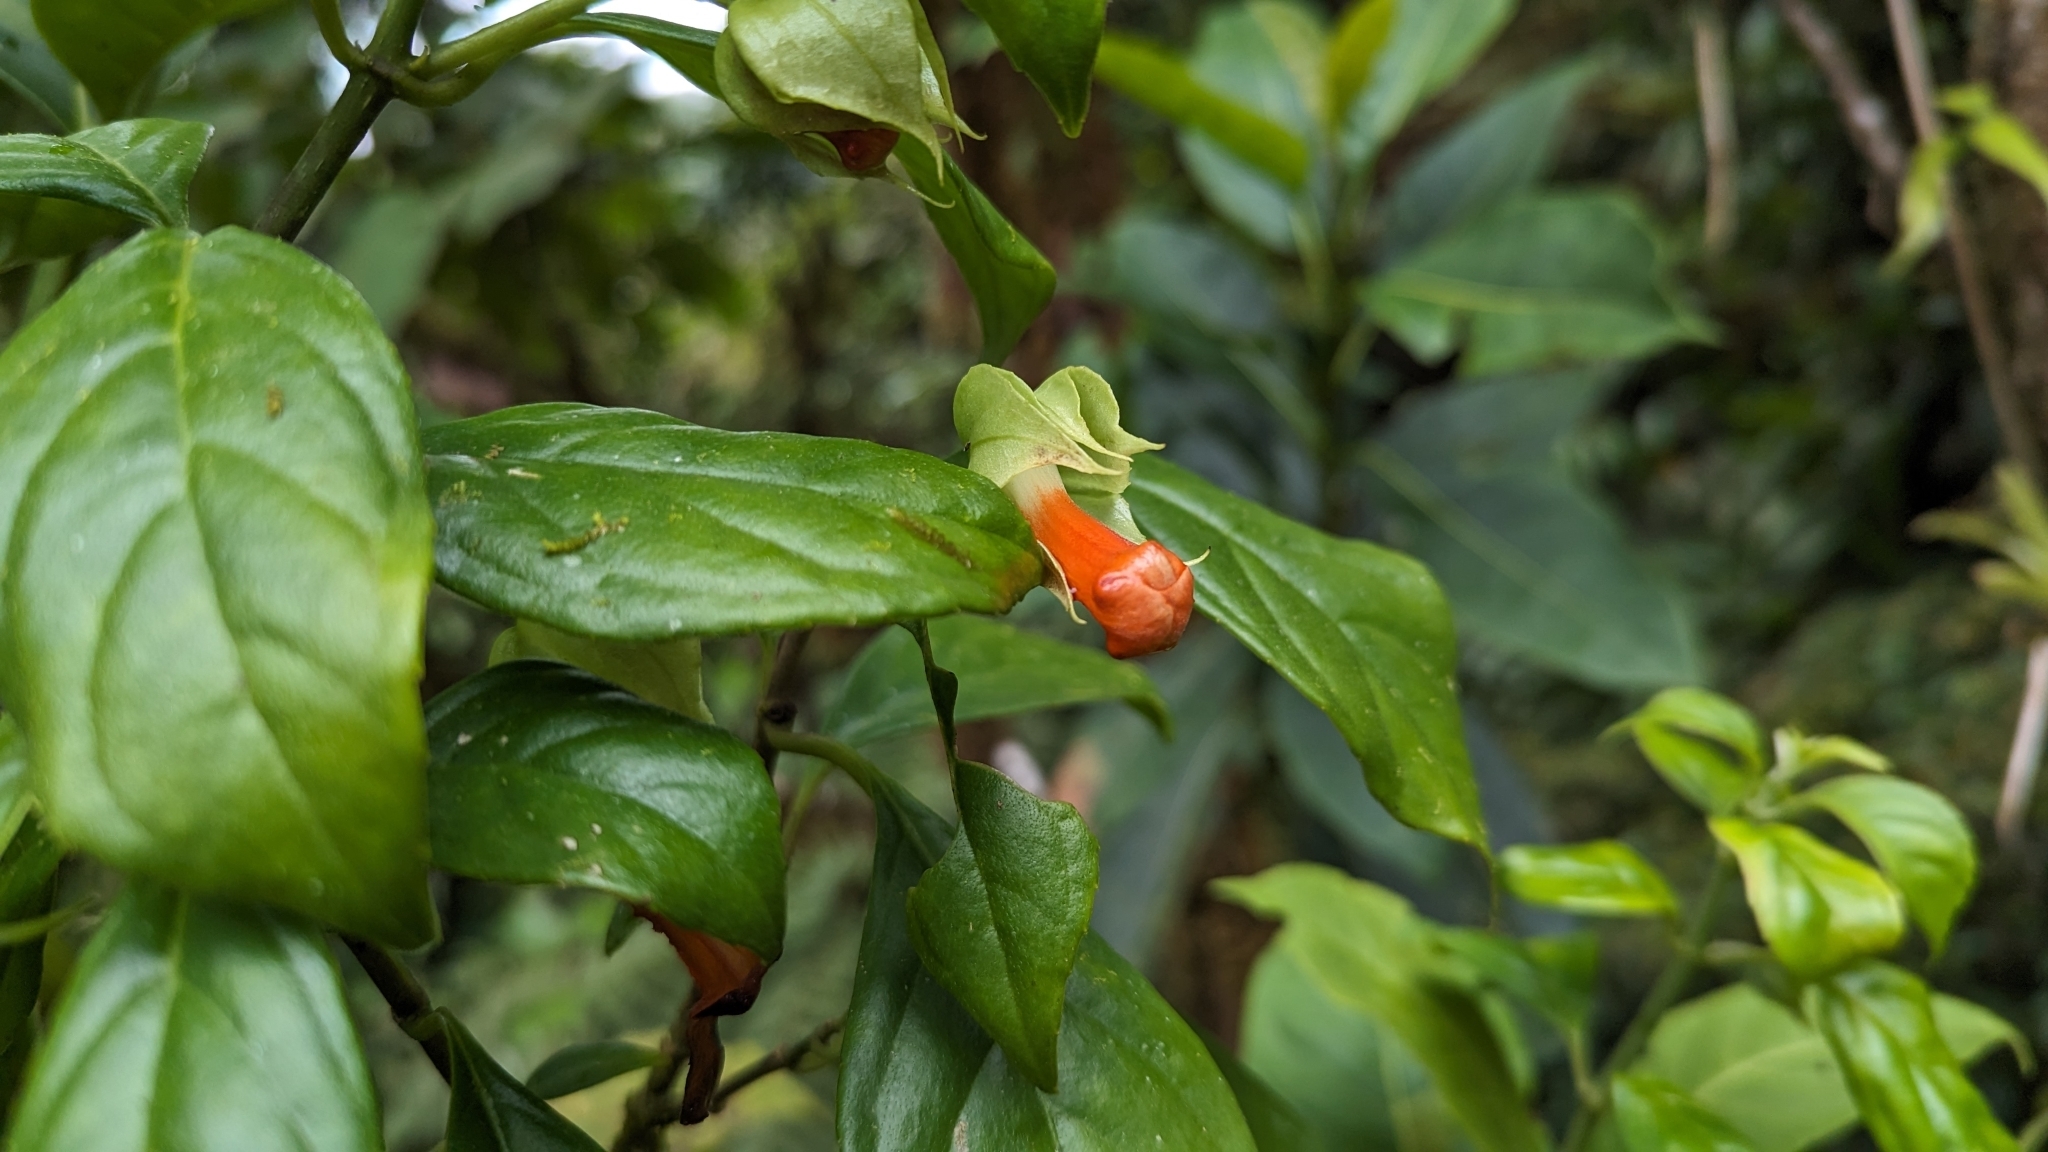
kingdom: Plantae
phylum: Tracheophyta
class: Magnoliopsida
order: Lamiales
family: Gesneriaceae
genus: Drymonia
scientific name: Drymonia rubra
